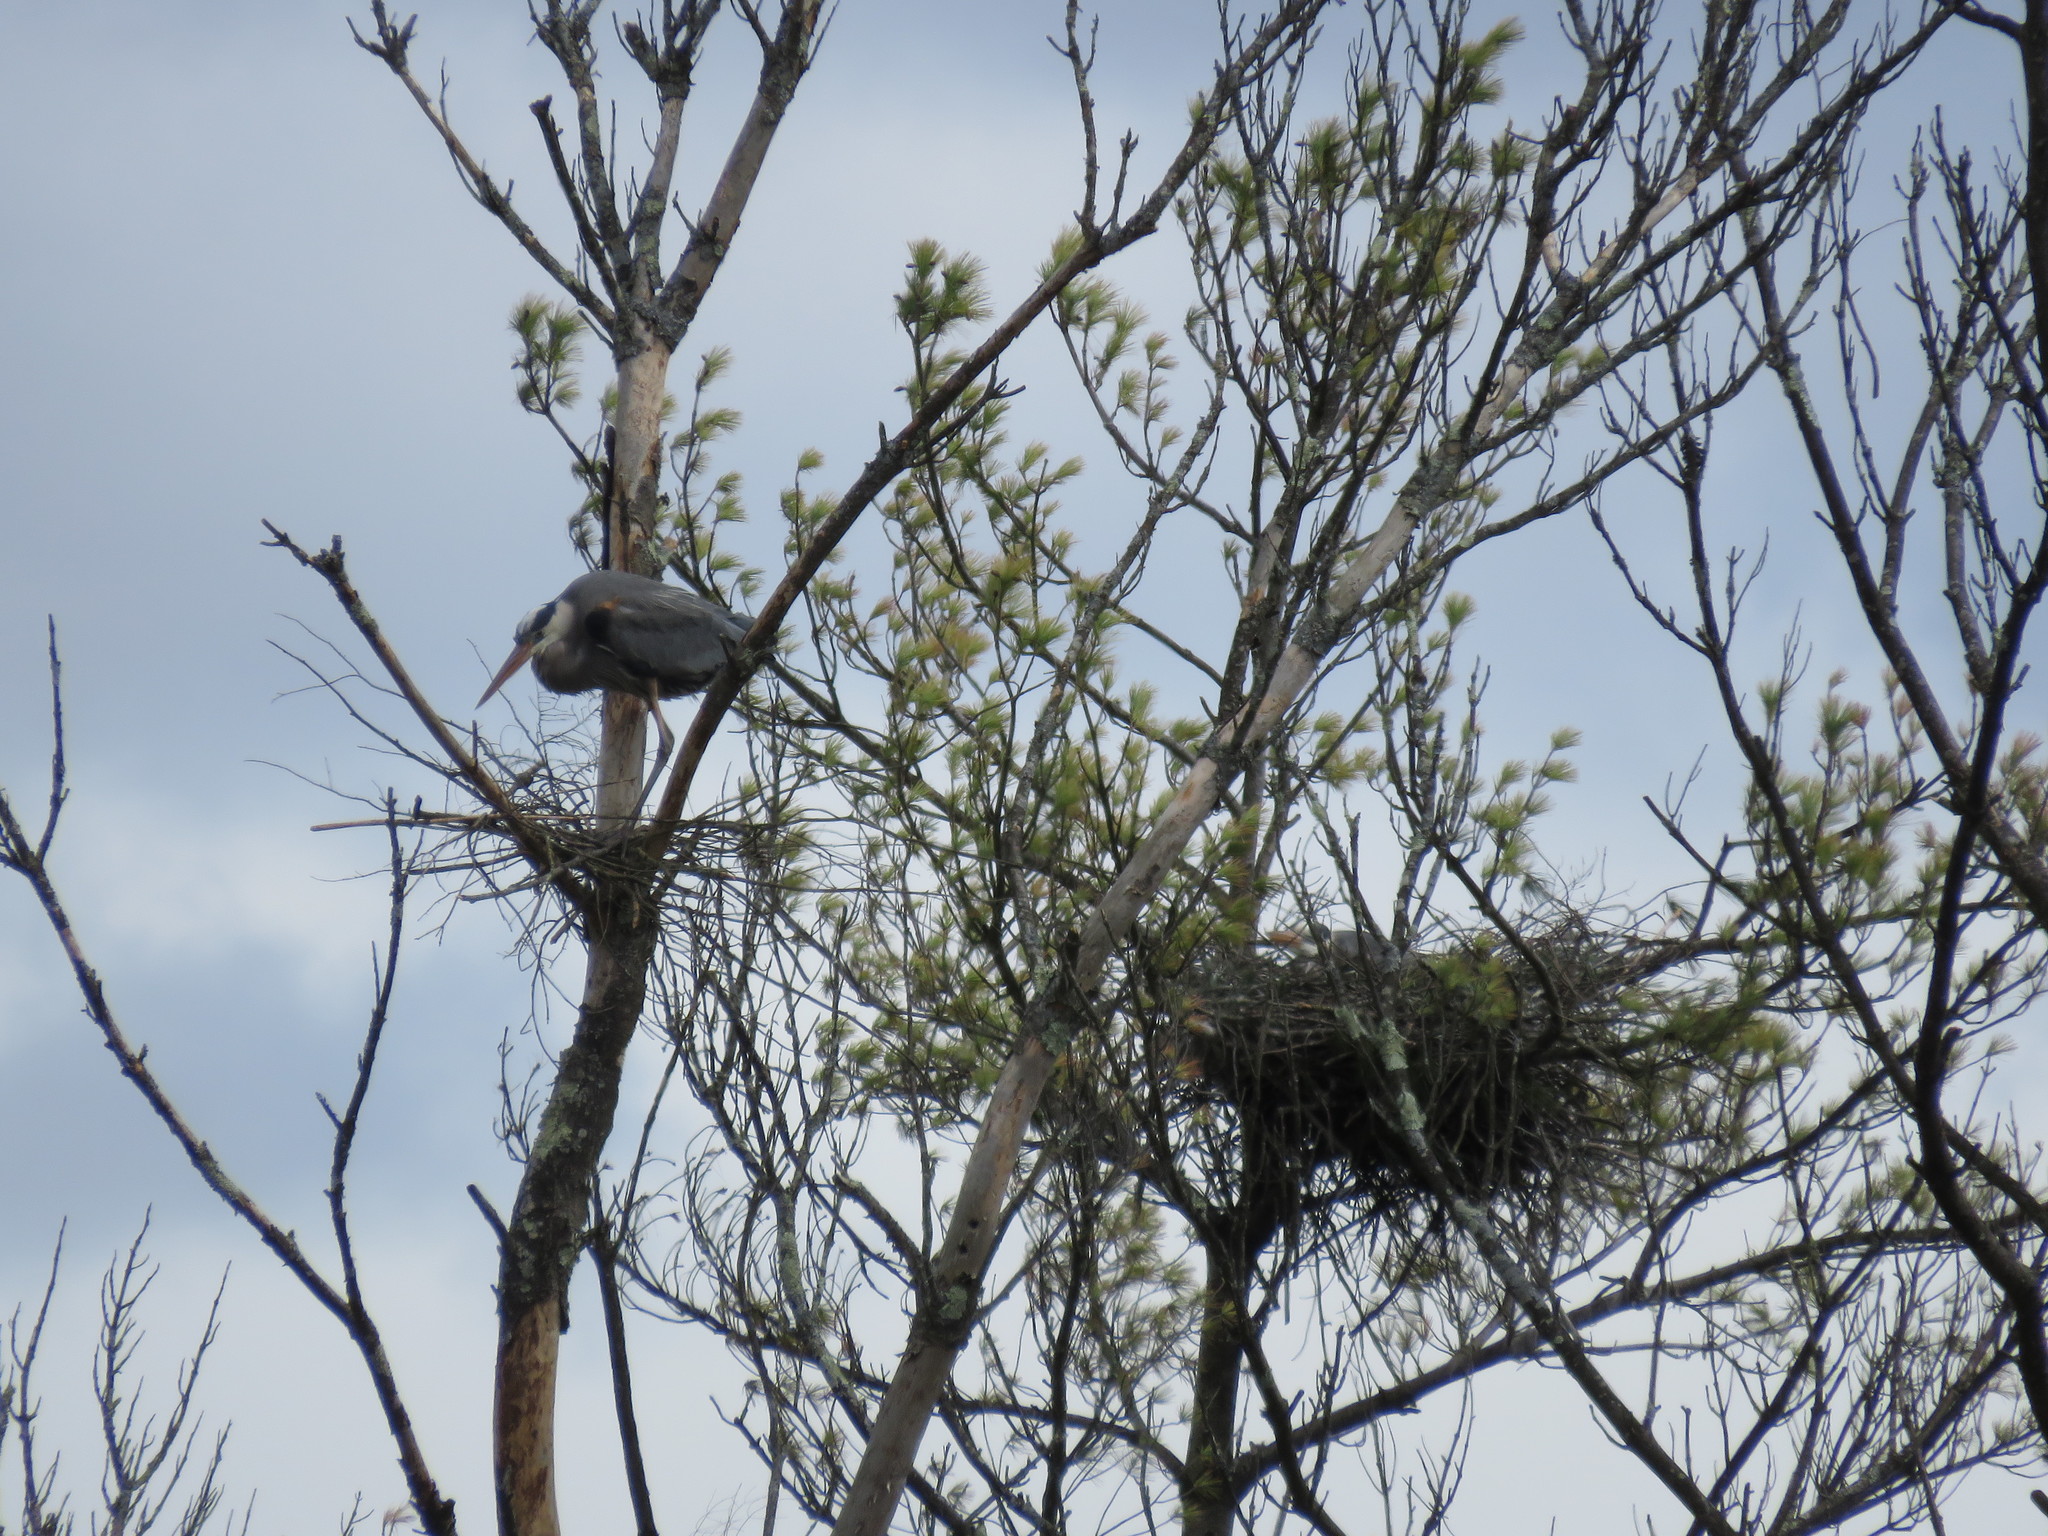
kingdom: Animalia
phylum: Chordata
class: Aves
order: Pelecaniformes
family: Ardeidae
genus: Ardea
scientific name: Ardea herodias
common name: Great blue heron
